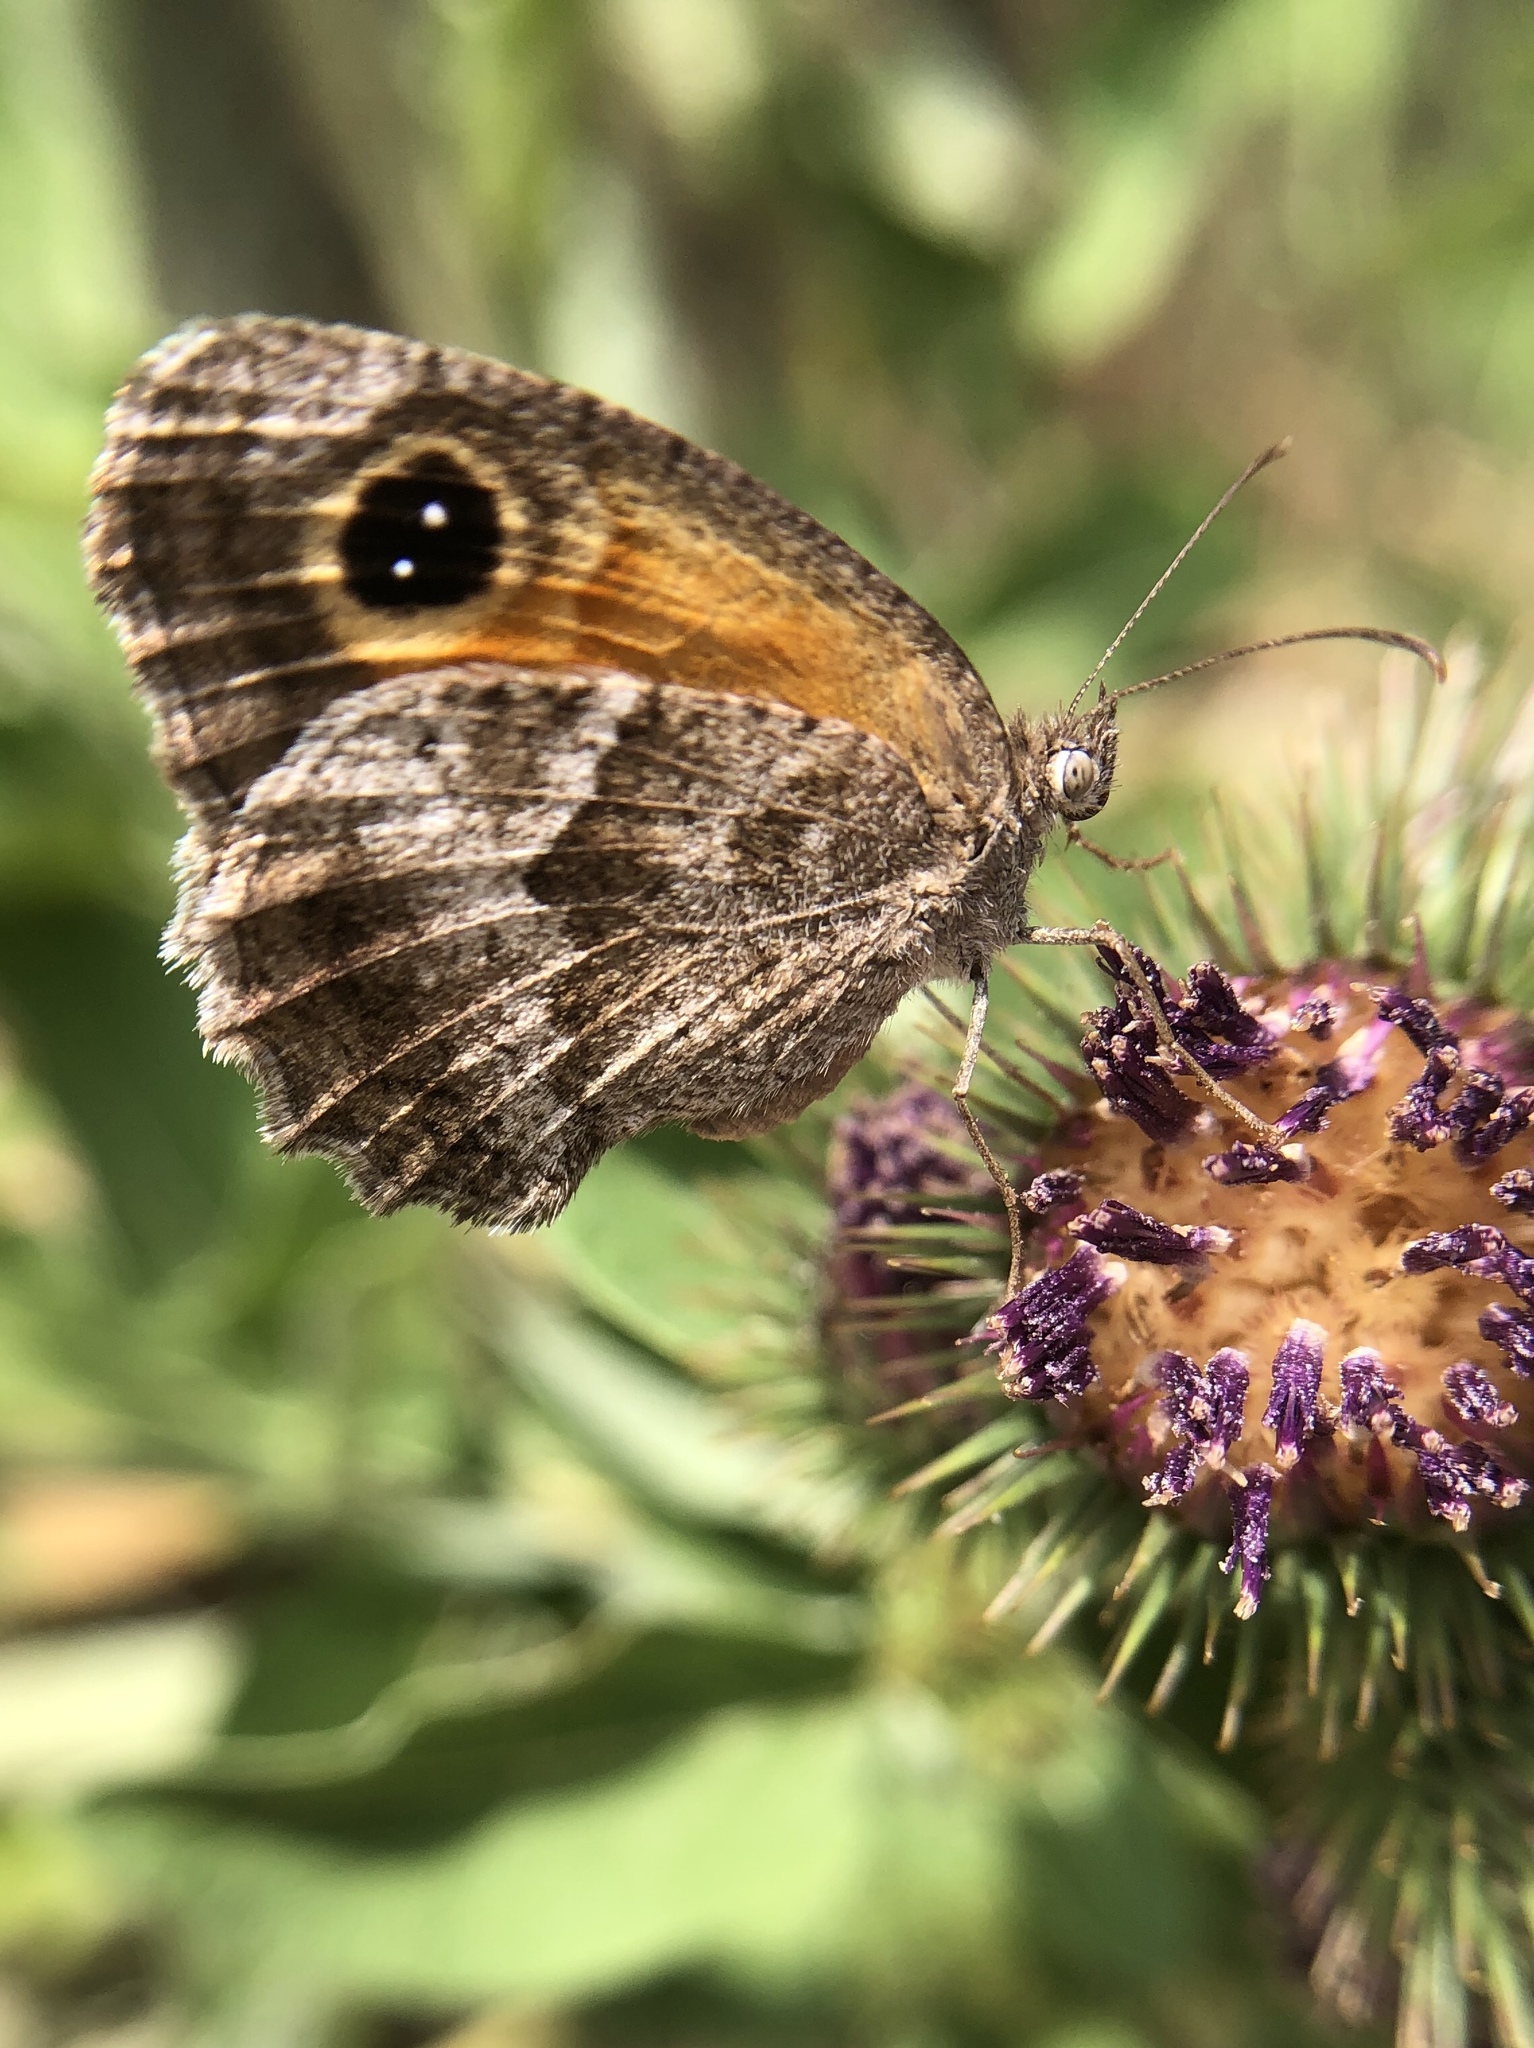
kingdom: Animalia
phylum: Arthropoda
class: Insecta
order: Lepidoptera
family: Nymphalidae
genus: Pyronia
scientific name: Pyronia cecilia
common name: Southern gatekeeper
